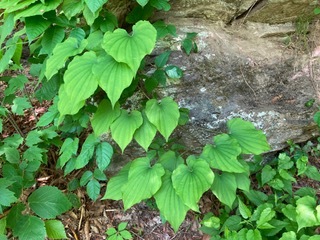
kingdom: Plantae
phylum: Tracheophyta
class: Liliopsida
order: Dioscoreales
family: Dioscoreaceae
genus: Dioscorea
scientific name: Dioscorea villosa
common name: Wild yam
